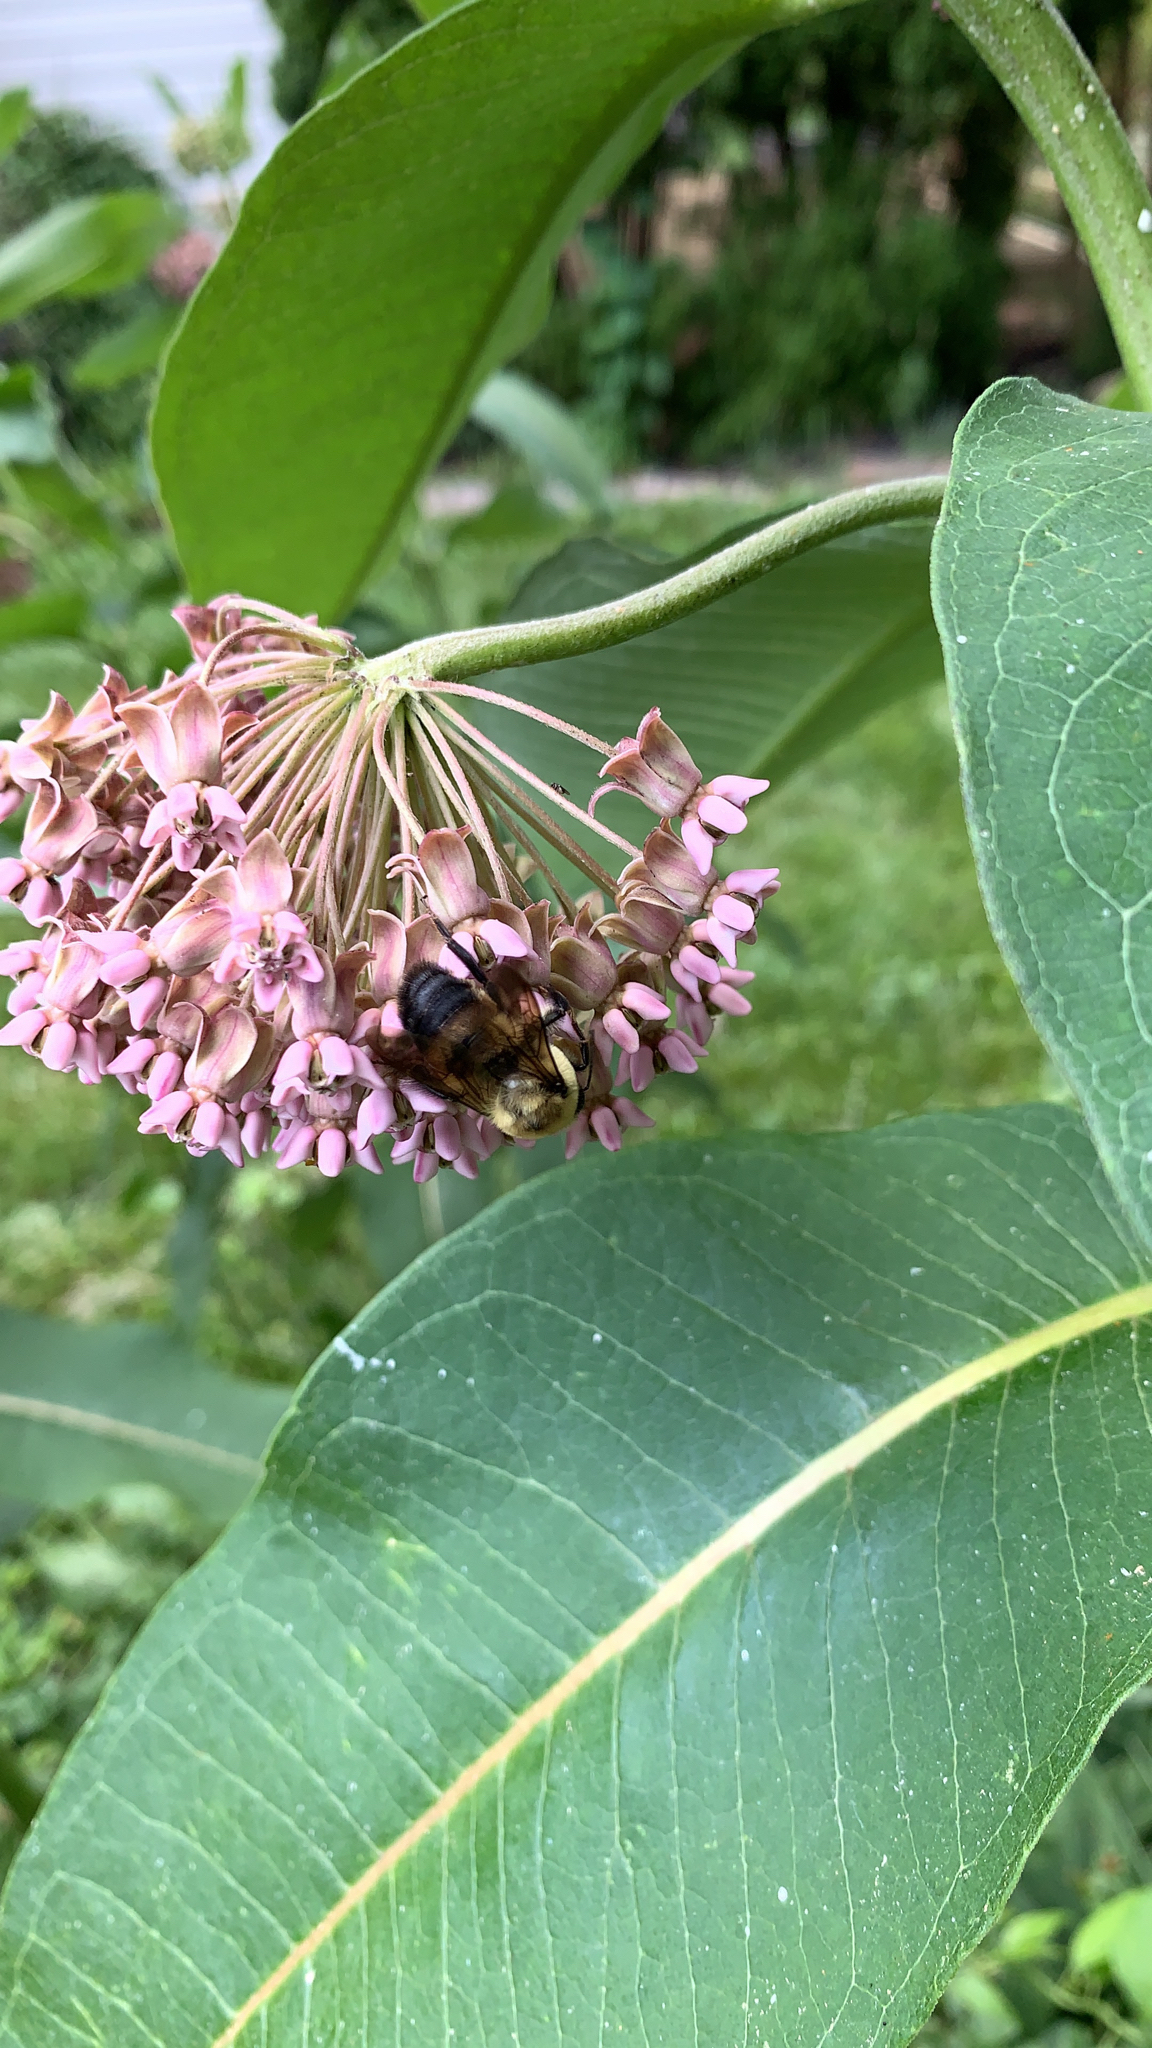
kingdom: Animalia
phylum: Arthropoda
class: Insecta
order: Hymenoptera
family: Apidae
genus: Bombus
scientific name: Bombus griseocollis
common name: Brown-belted bumble bee
